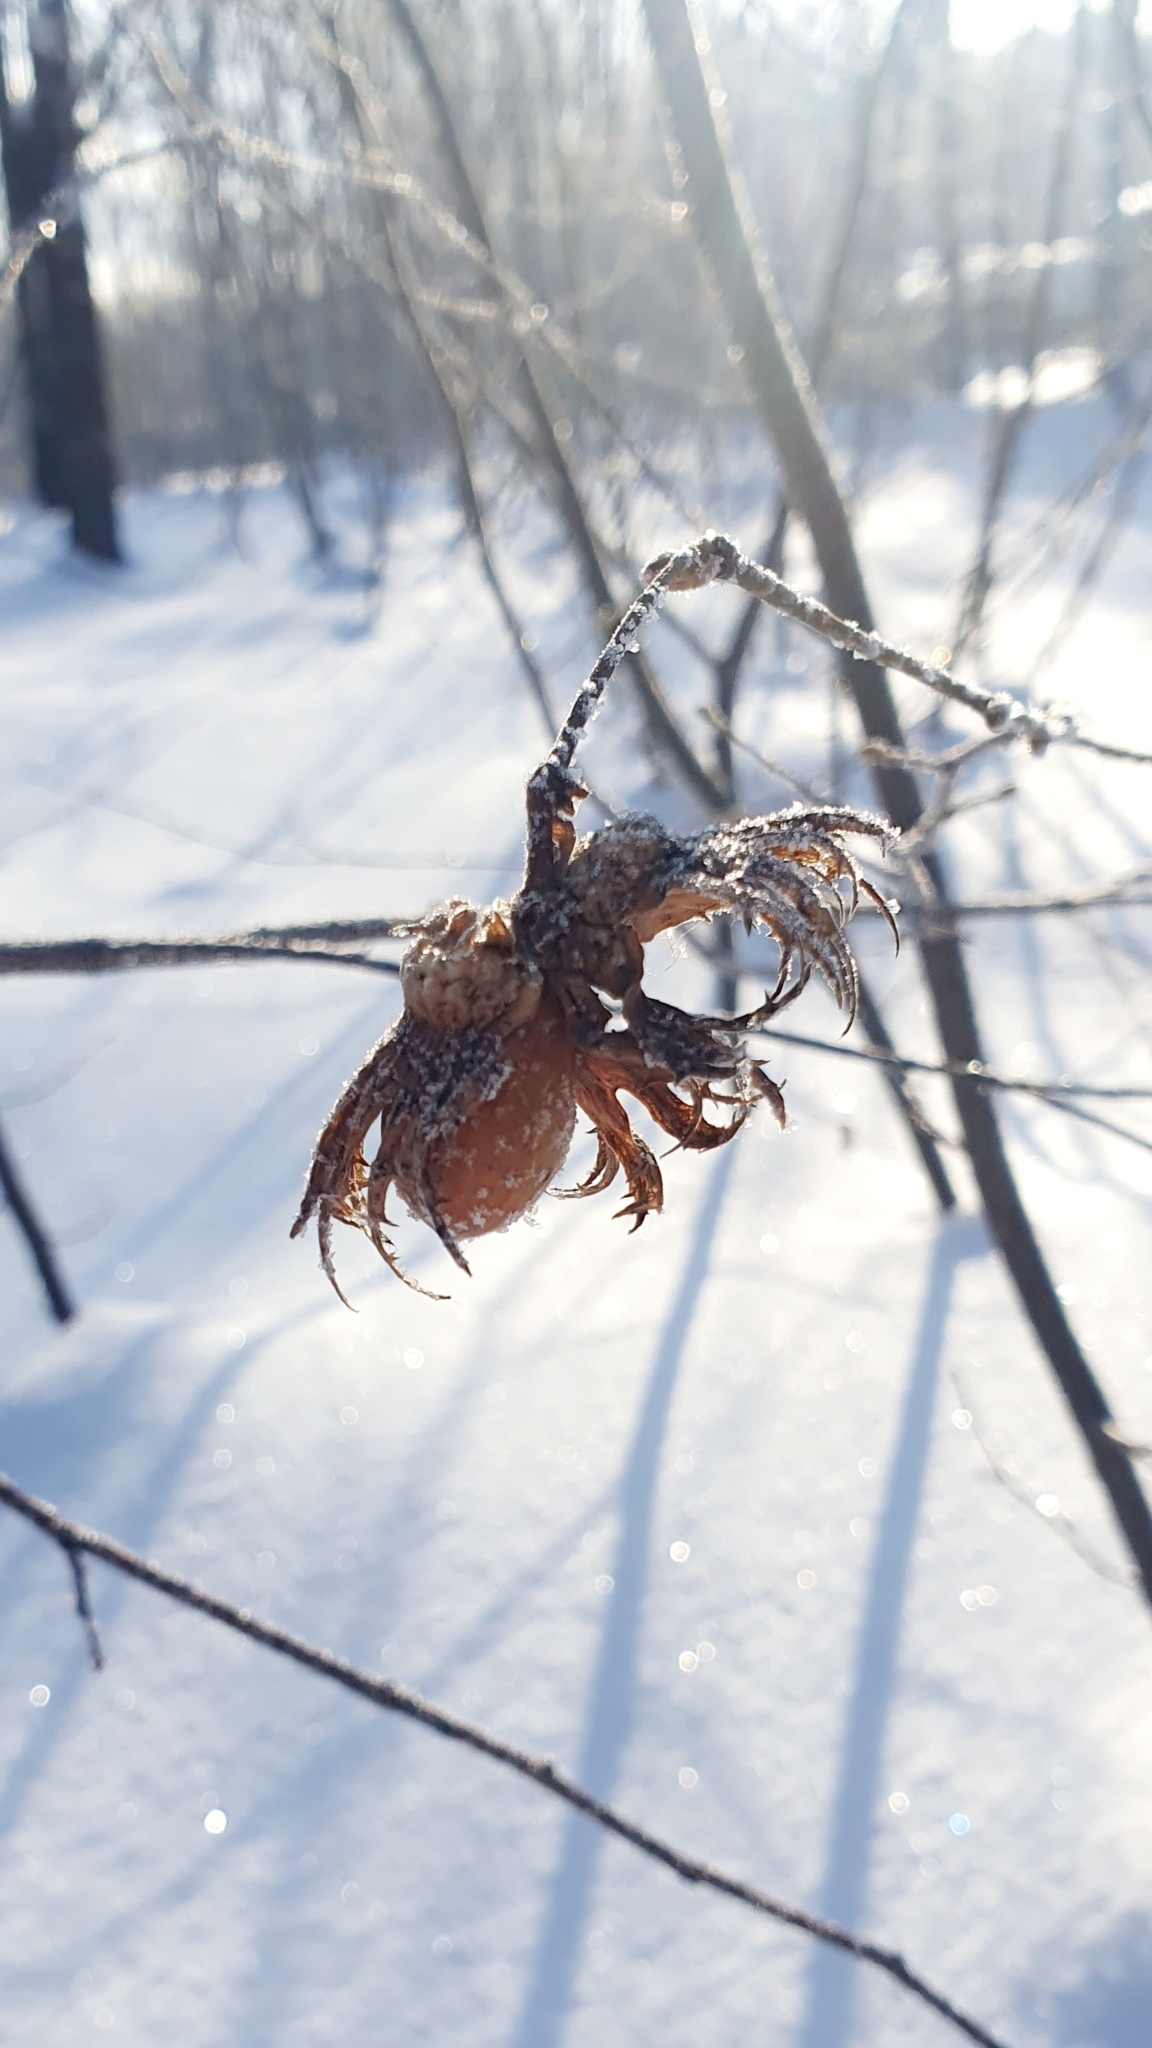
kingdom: Plantae
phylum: Tracheophyta
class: Magnoliopsida
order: Fagales
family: Betulaceae
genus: Corylus
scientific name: Corylus avellana
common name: European hazel
